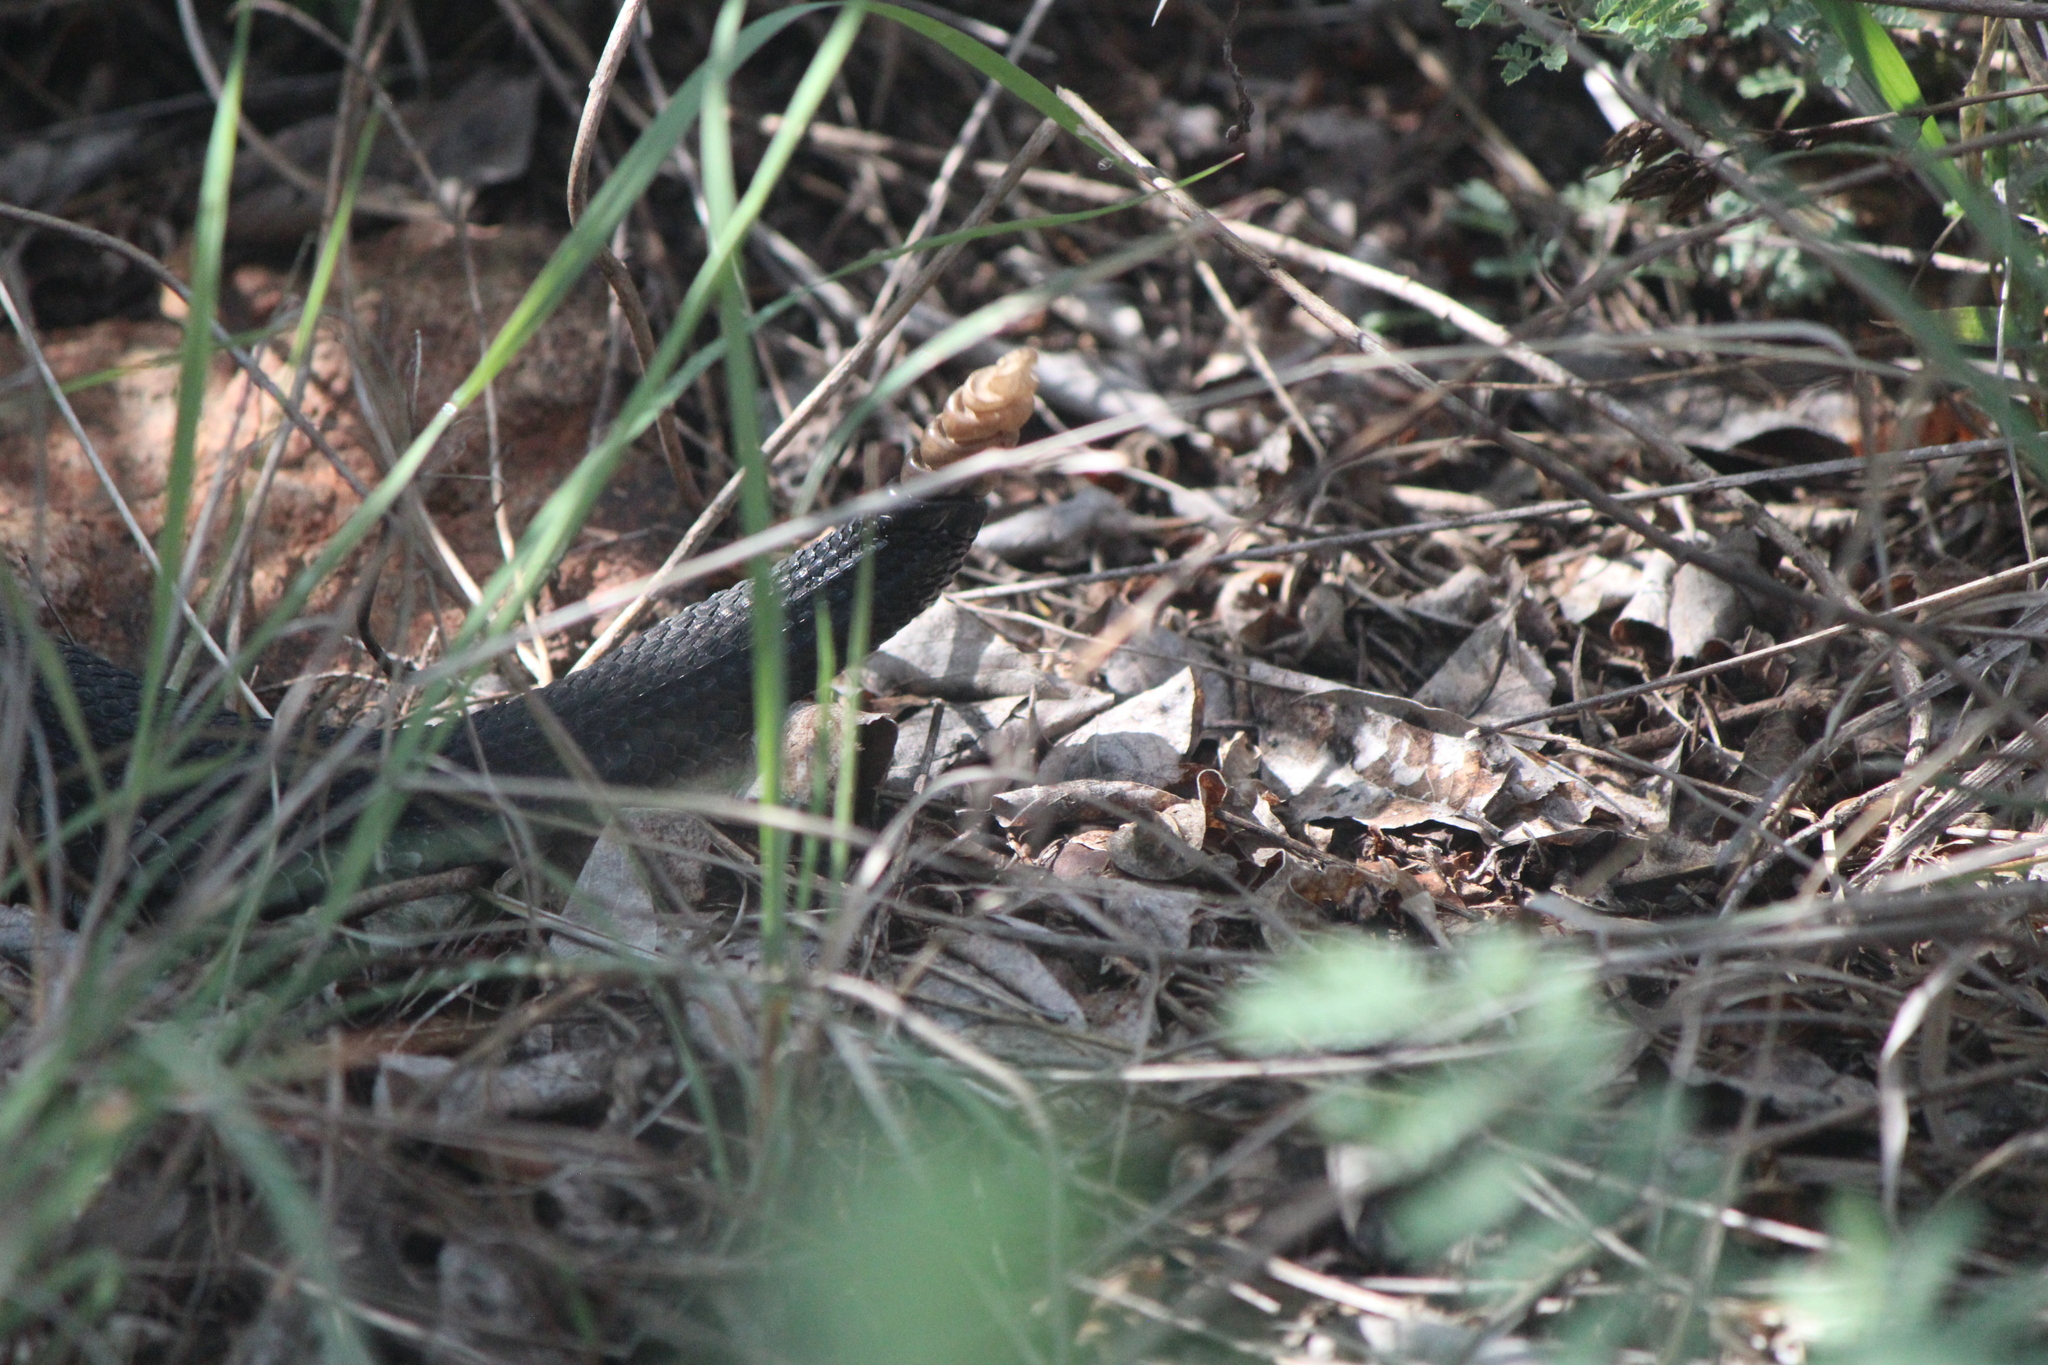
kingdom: Animalia
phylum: Chordata
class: Squamata
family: Viperidae
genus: Crotalus
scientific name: Crotalus molossus
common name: Black tailed rattlesnake
